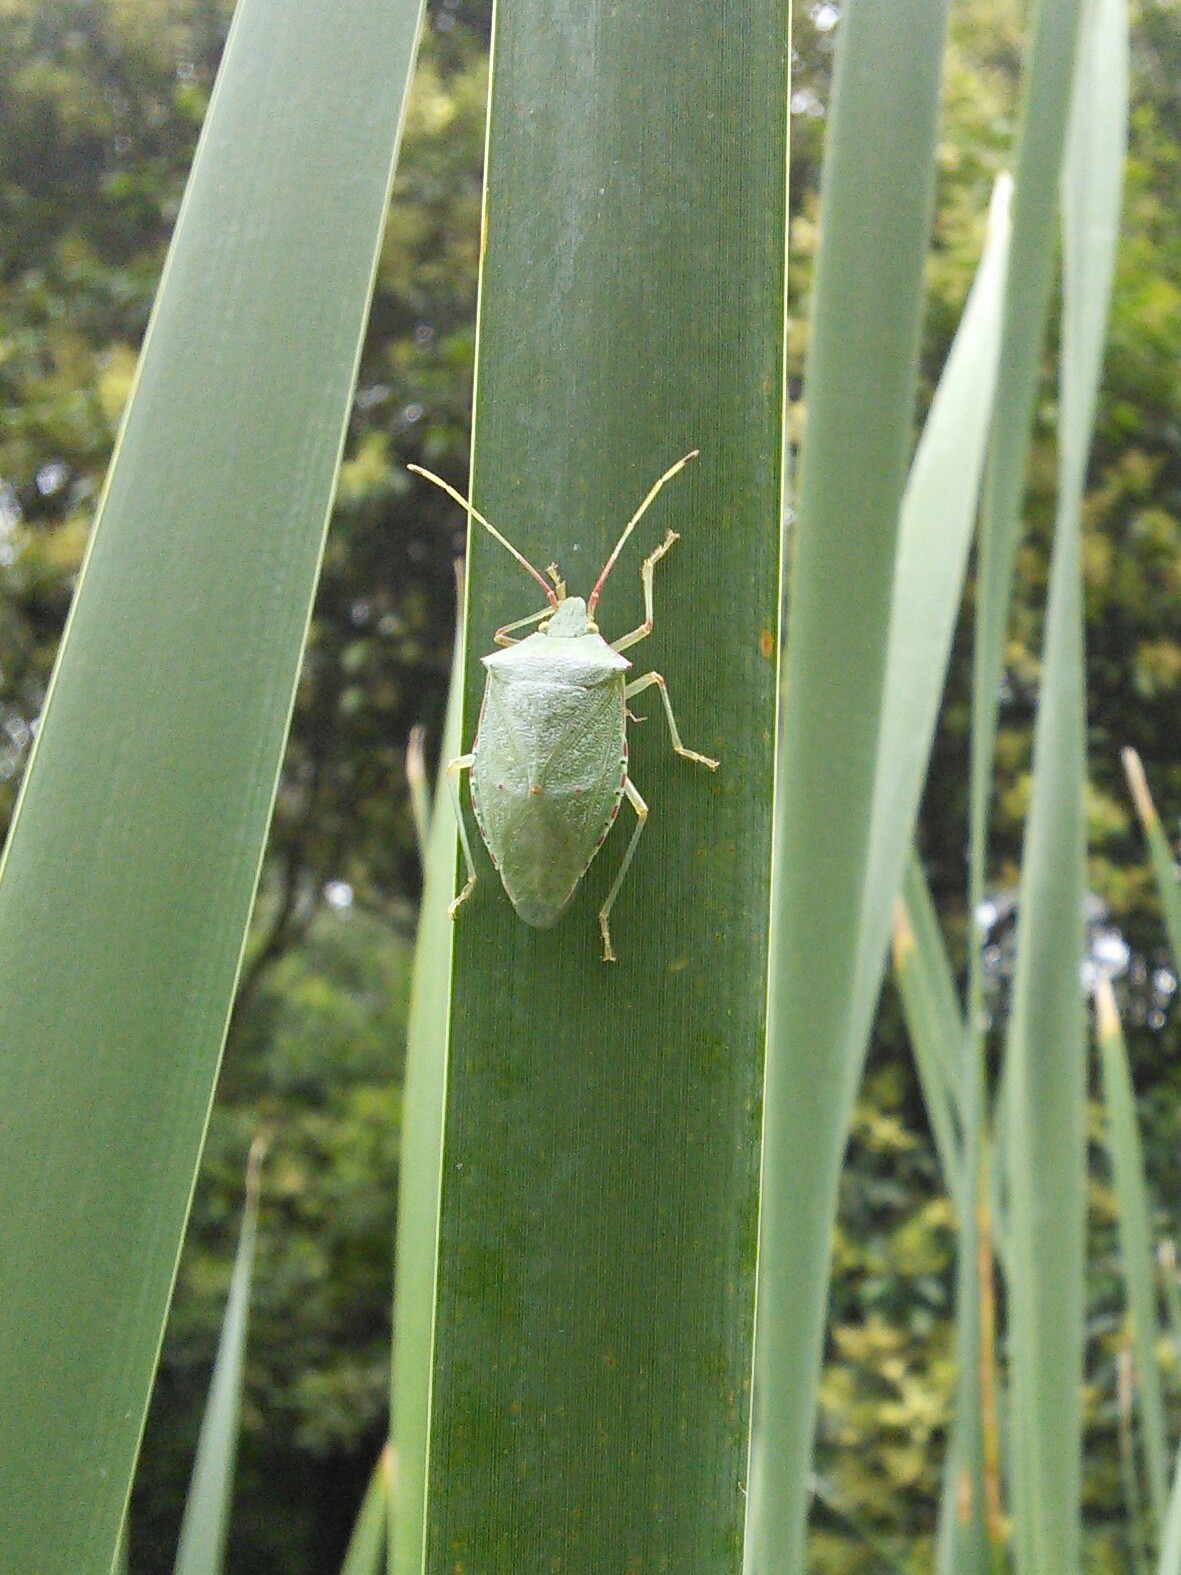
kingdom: Animalia
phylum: Arthropoda
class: Insecta
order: Hemiptera
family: Pentatomidae
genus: Chlorocoris
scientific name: Chlorocoris
